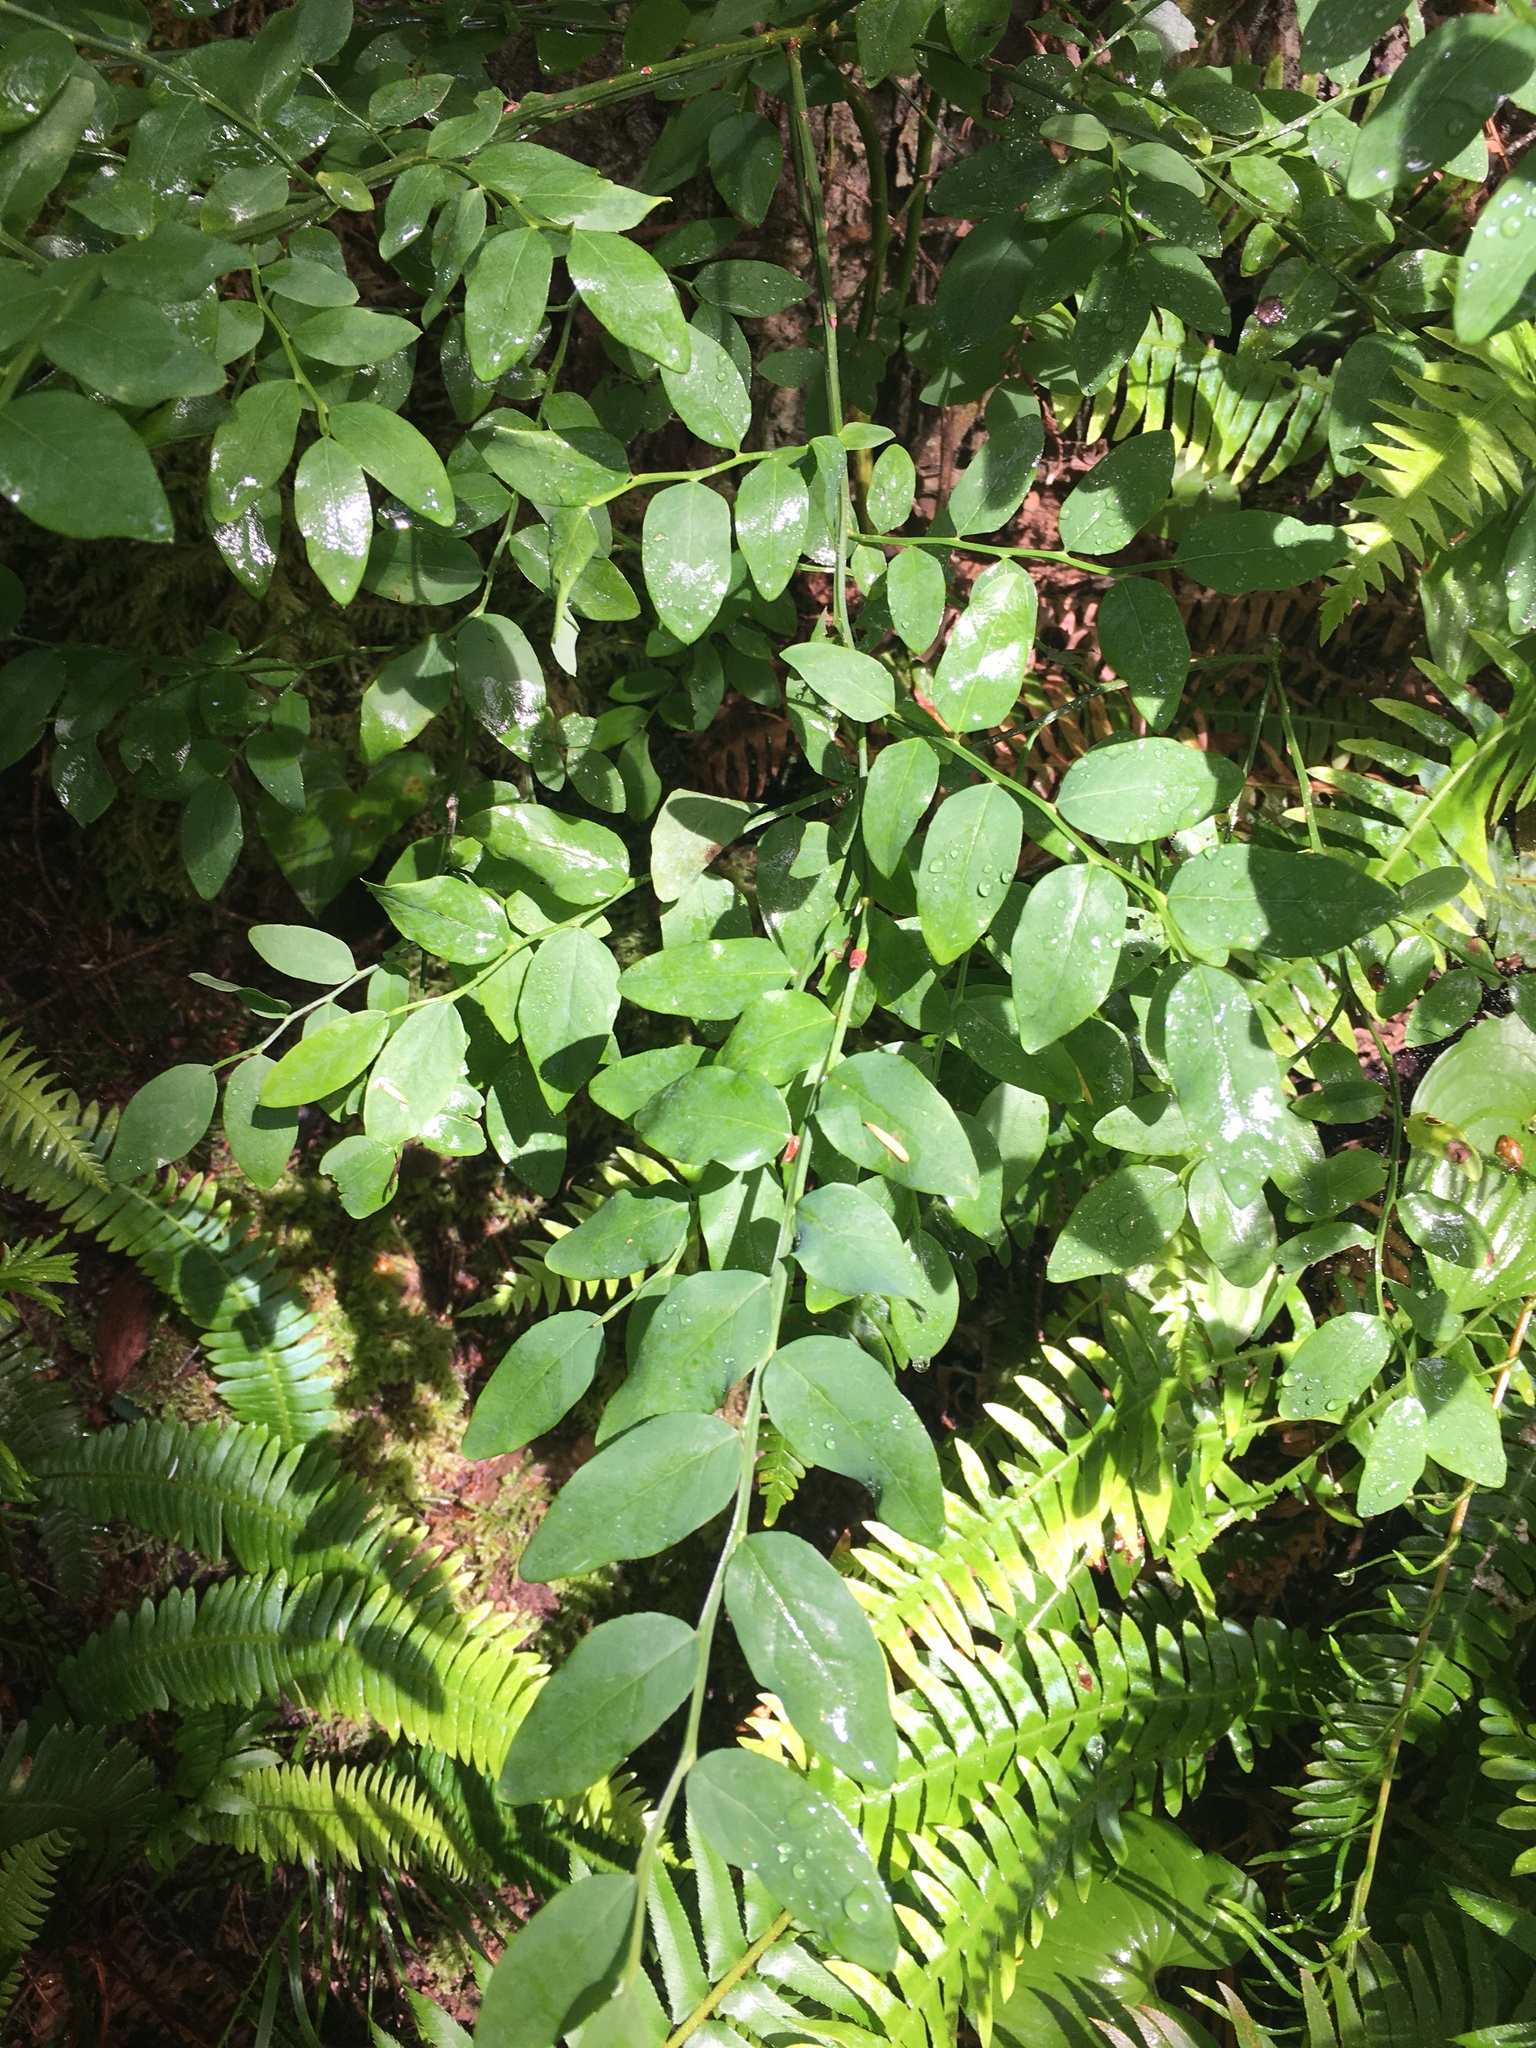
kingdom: Plantae
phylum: Tracheophyta
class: Magnoliopsida
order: Ericales
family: Ericaceae
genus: Vaccinium
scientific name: Vaccinium parvifolium
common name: Red-huckleberry
